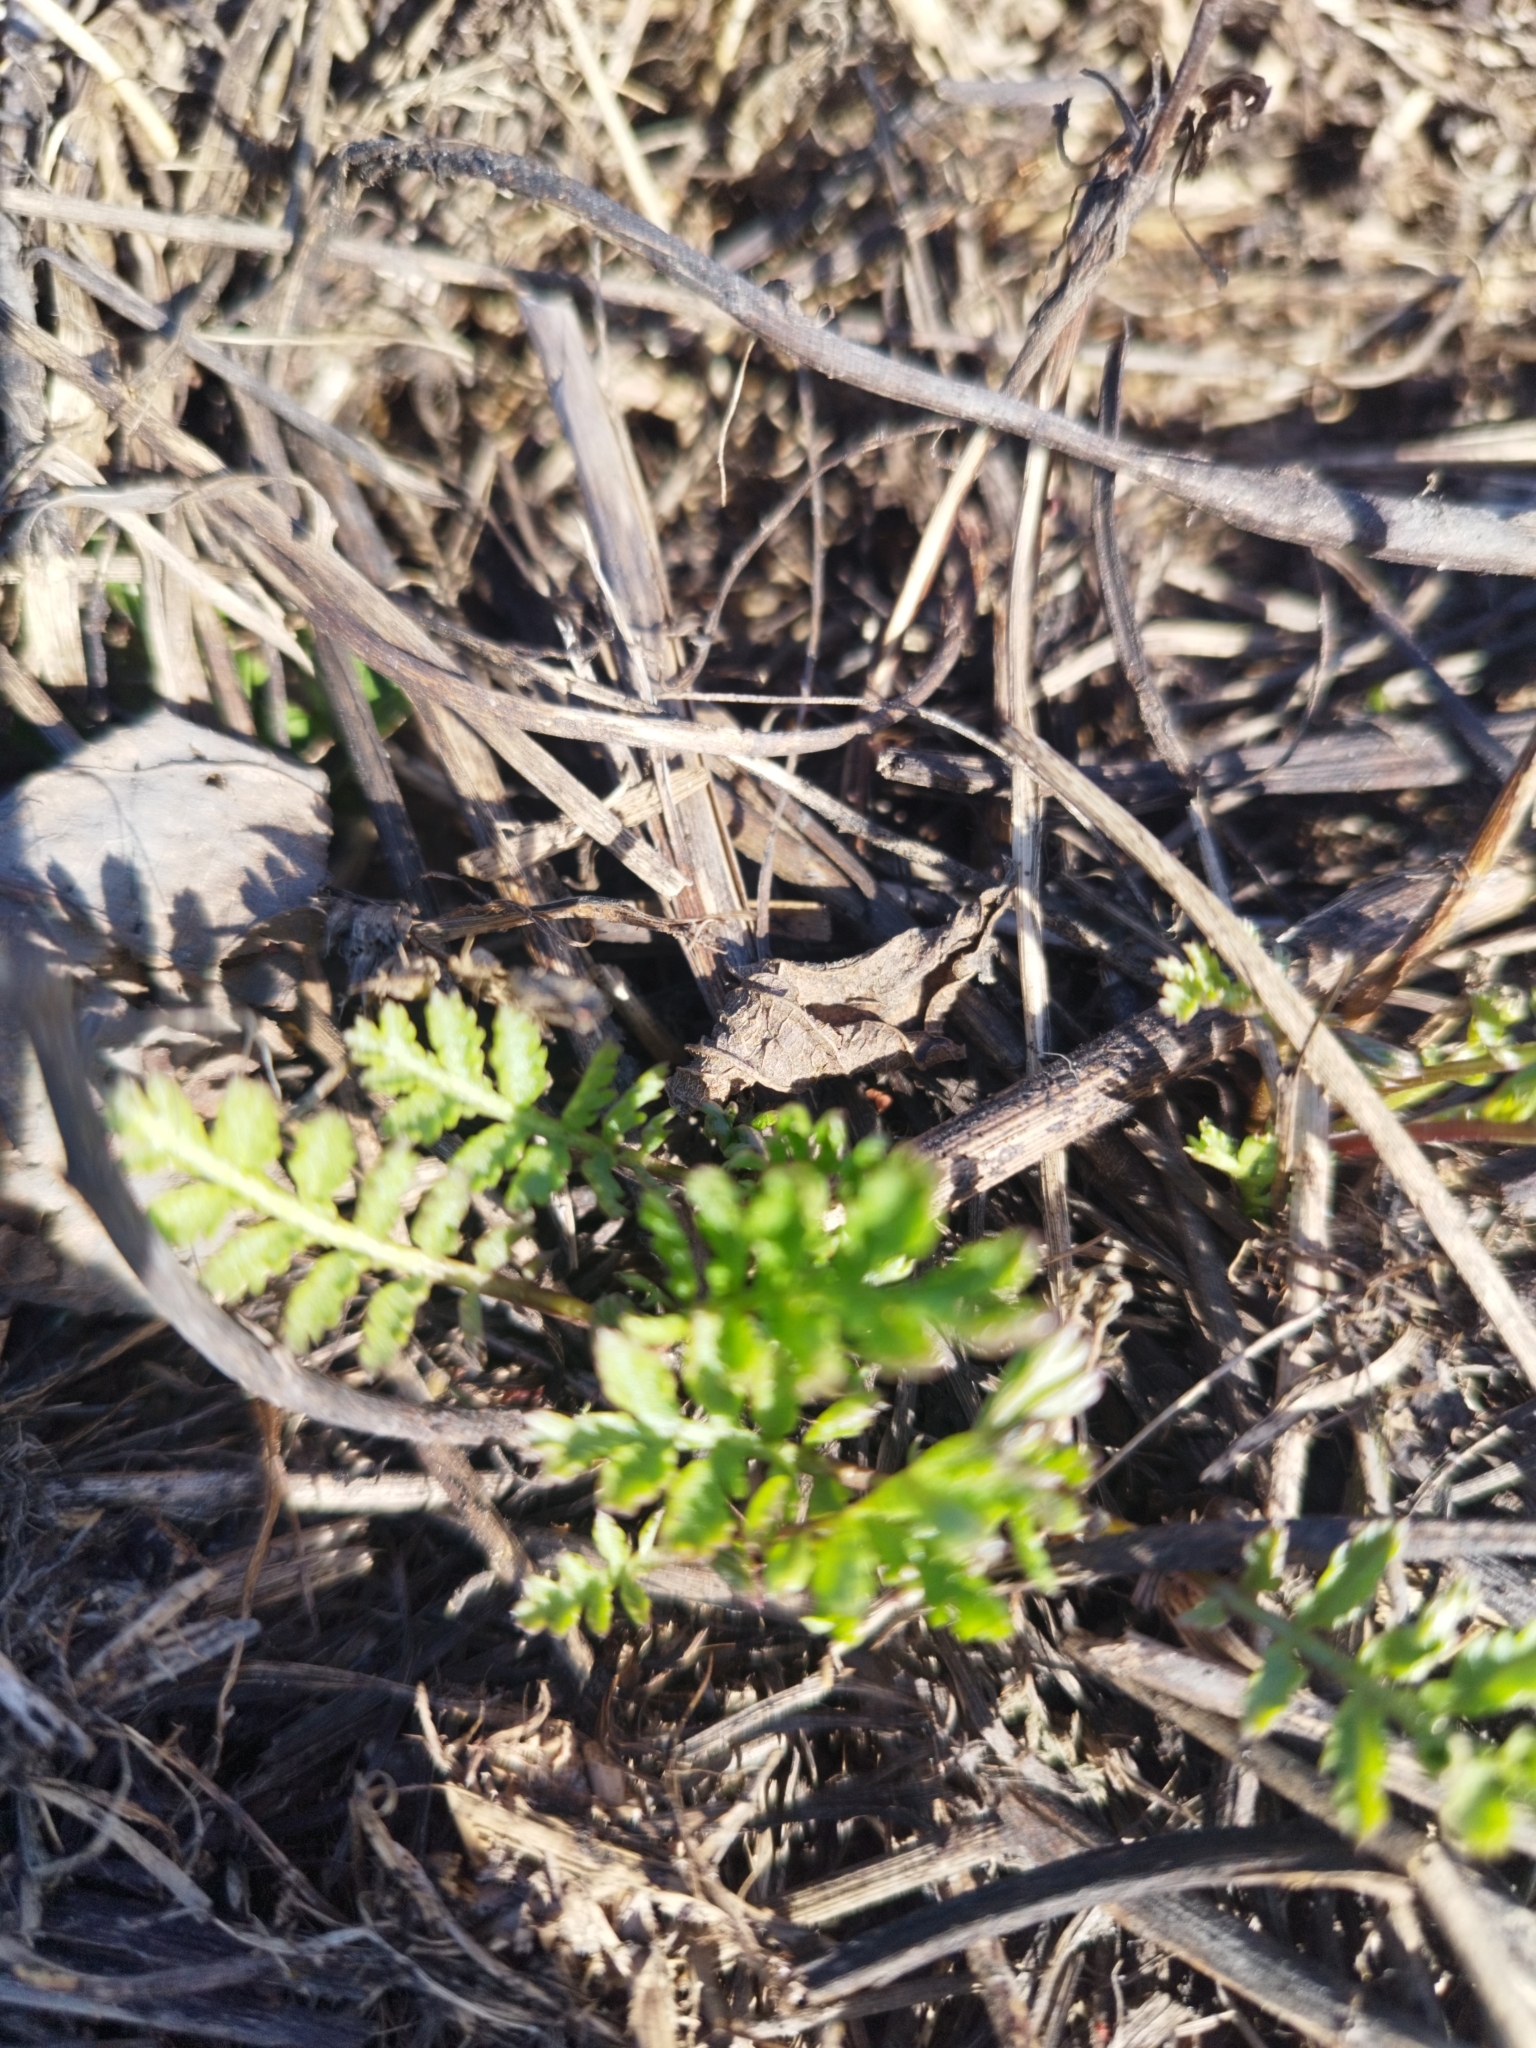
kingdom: Plantae
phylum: Tracheophyta
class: Magnoliopsida
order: Asterales
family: Asteraceae
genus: Tanacetum
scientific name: Tanacetum vulgare
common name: Common tansy
